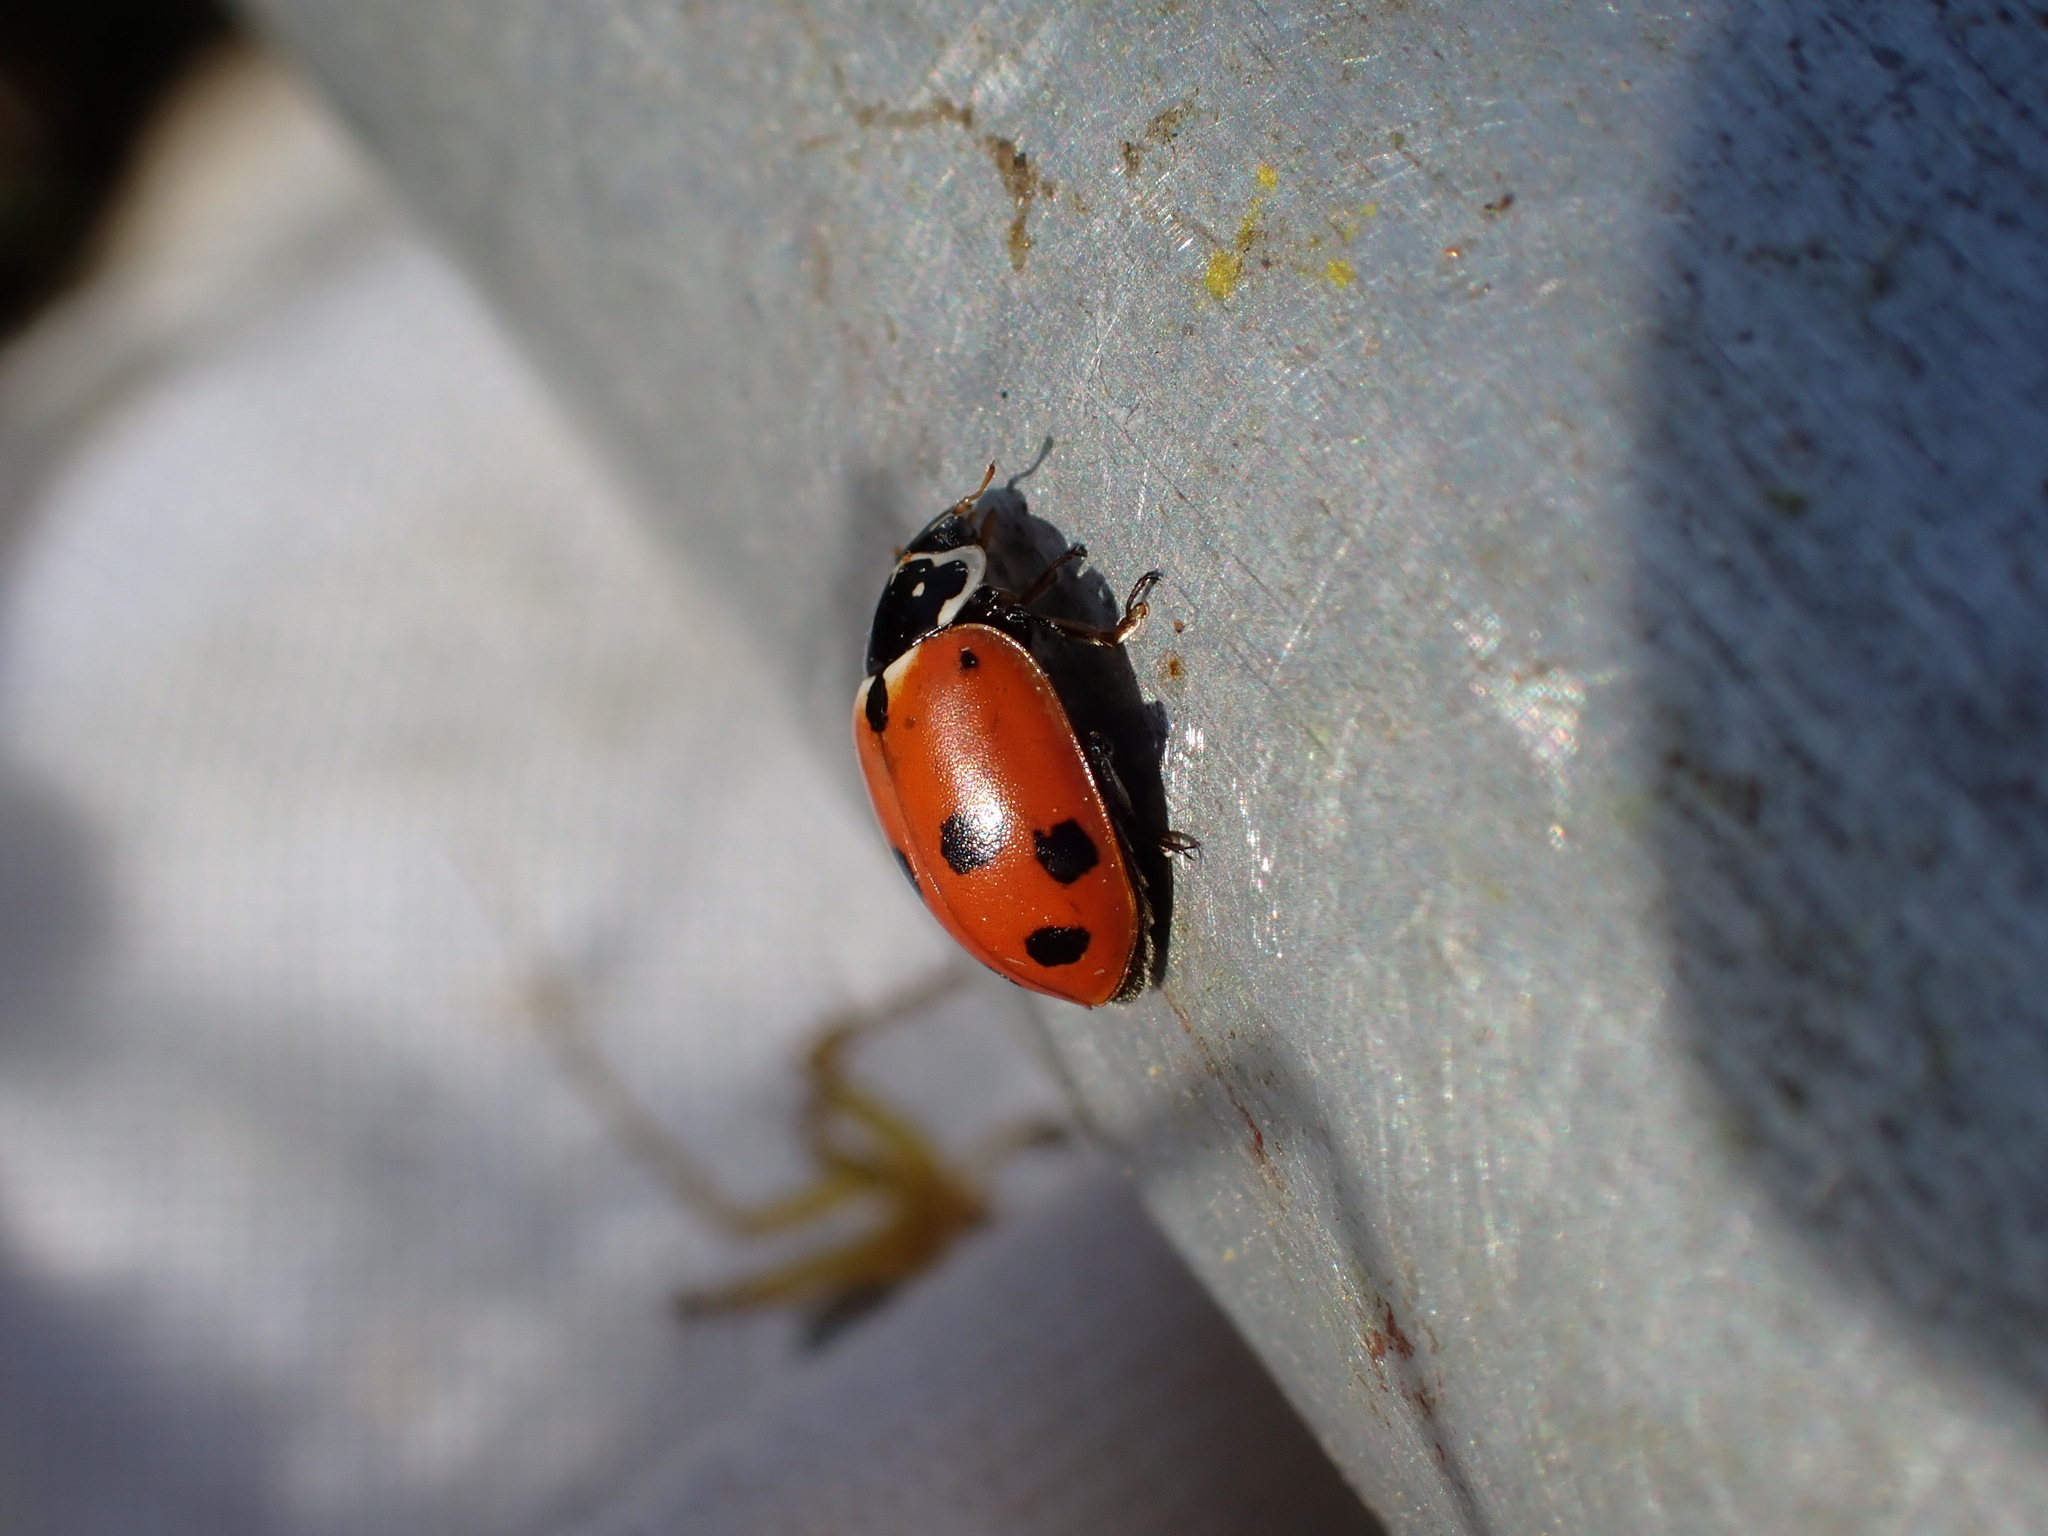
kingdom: Animalia
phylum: Arthropoda
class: Insecta
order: Coleoptera
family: Coccinellidae
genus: Hippodamia
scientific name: Hippodamia variegata
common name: Ladybird beetle
